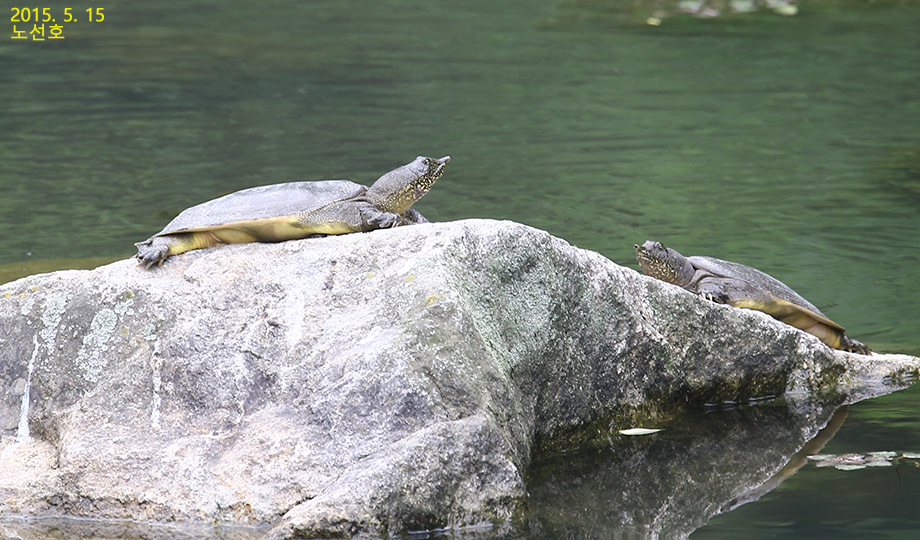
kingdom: Animalia
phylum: Chordata
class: Testudines
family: Trionychidae
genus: Pelodiscus
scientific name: Pelodiscus maackii
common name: Northern chinese softshell turtle
